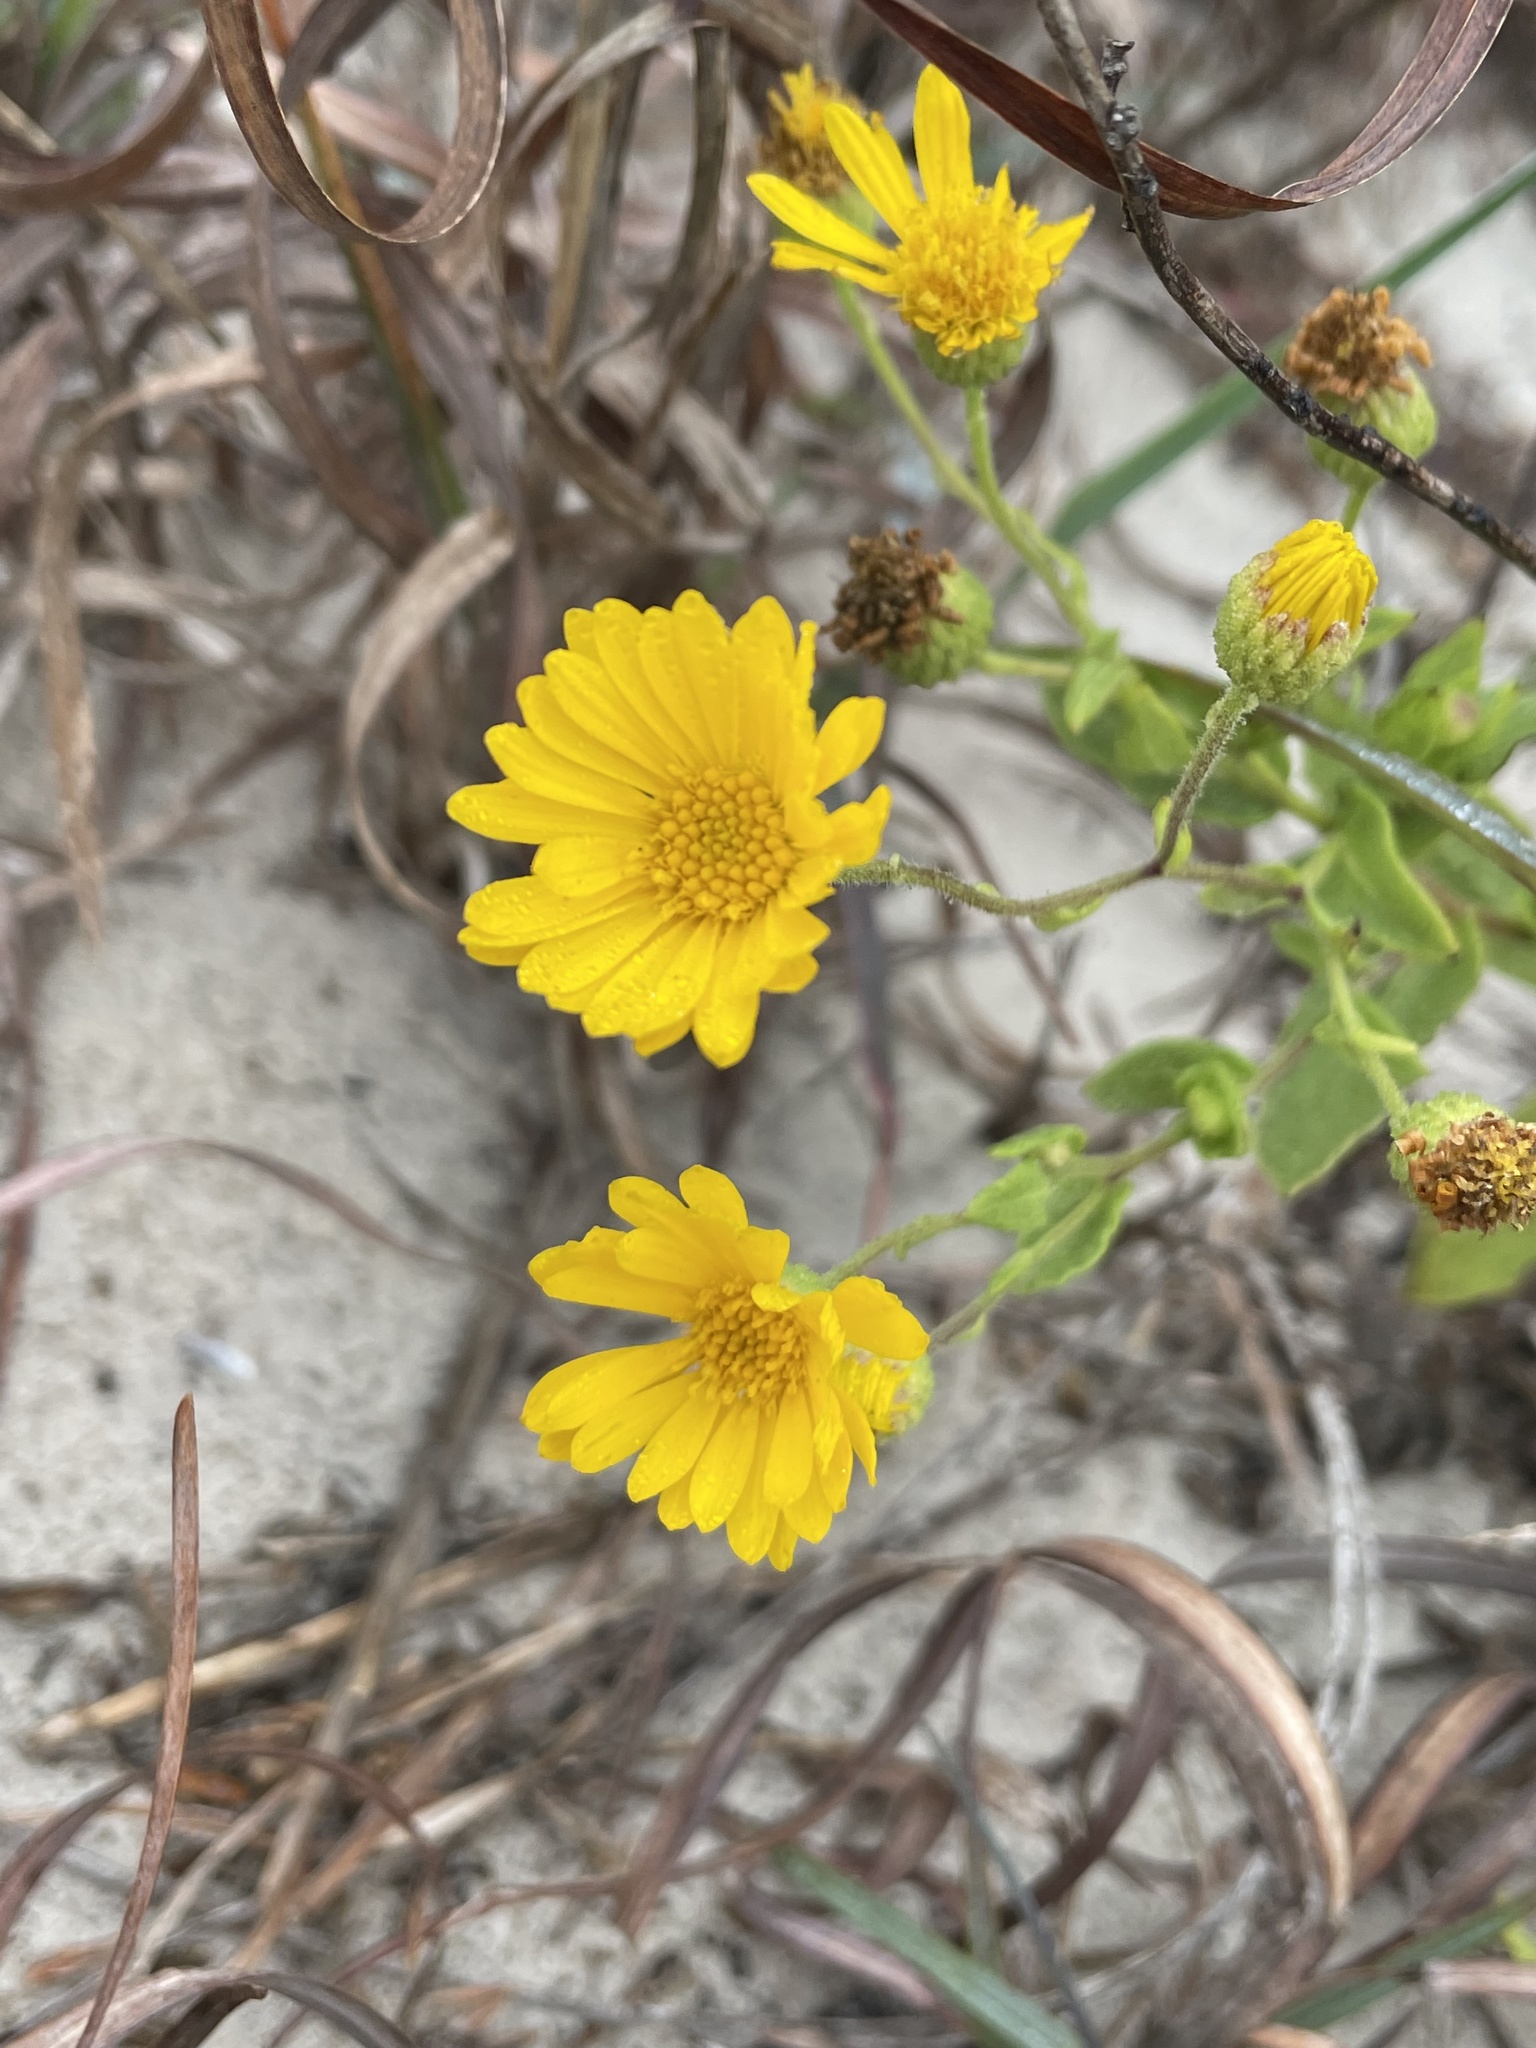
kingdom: Plantae
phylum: Tracheophyta
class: Magnoliopsida
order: Asterales
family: Asteraceae
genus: Heterotheca
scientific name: Heterotheca subaxillaris
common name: Camphorweed
